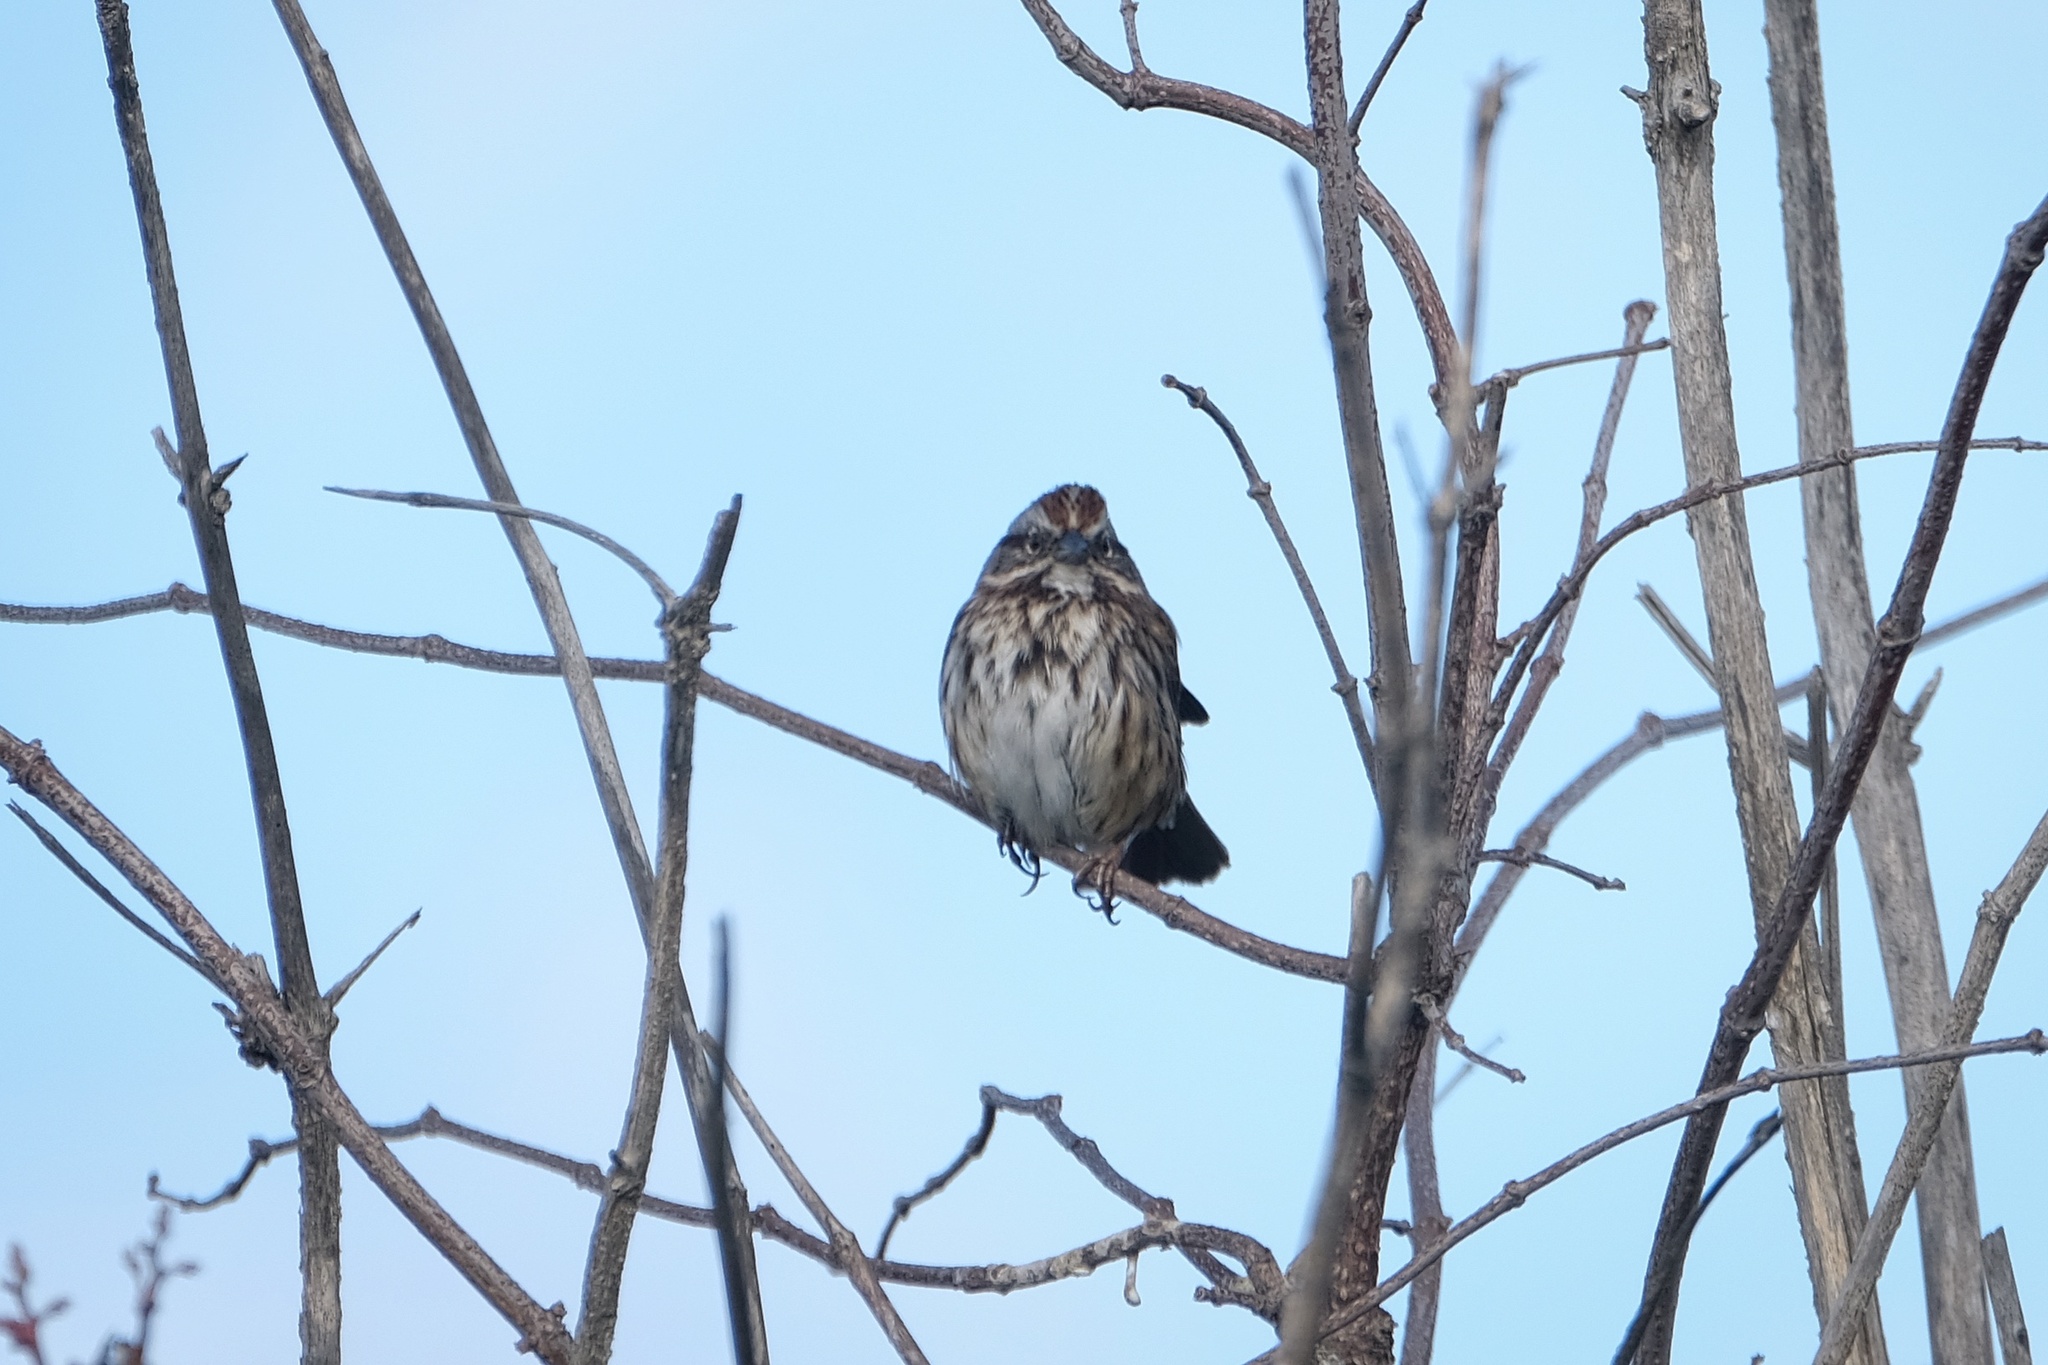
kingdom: Animalia
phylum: Chordata
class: Aves
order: Passeriformes
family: Passerellidae
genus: Melospiza
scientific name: Melospiza melodia
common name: Song sparrow
